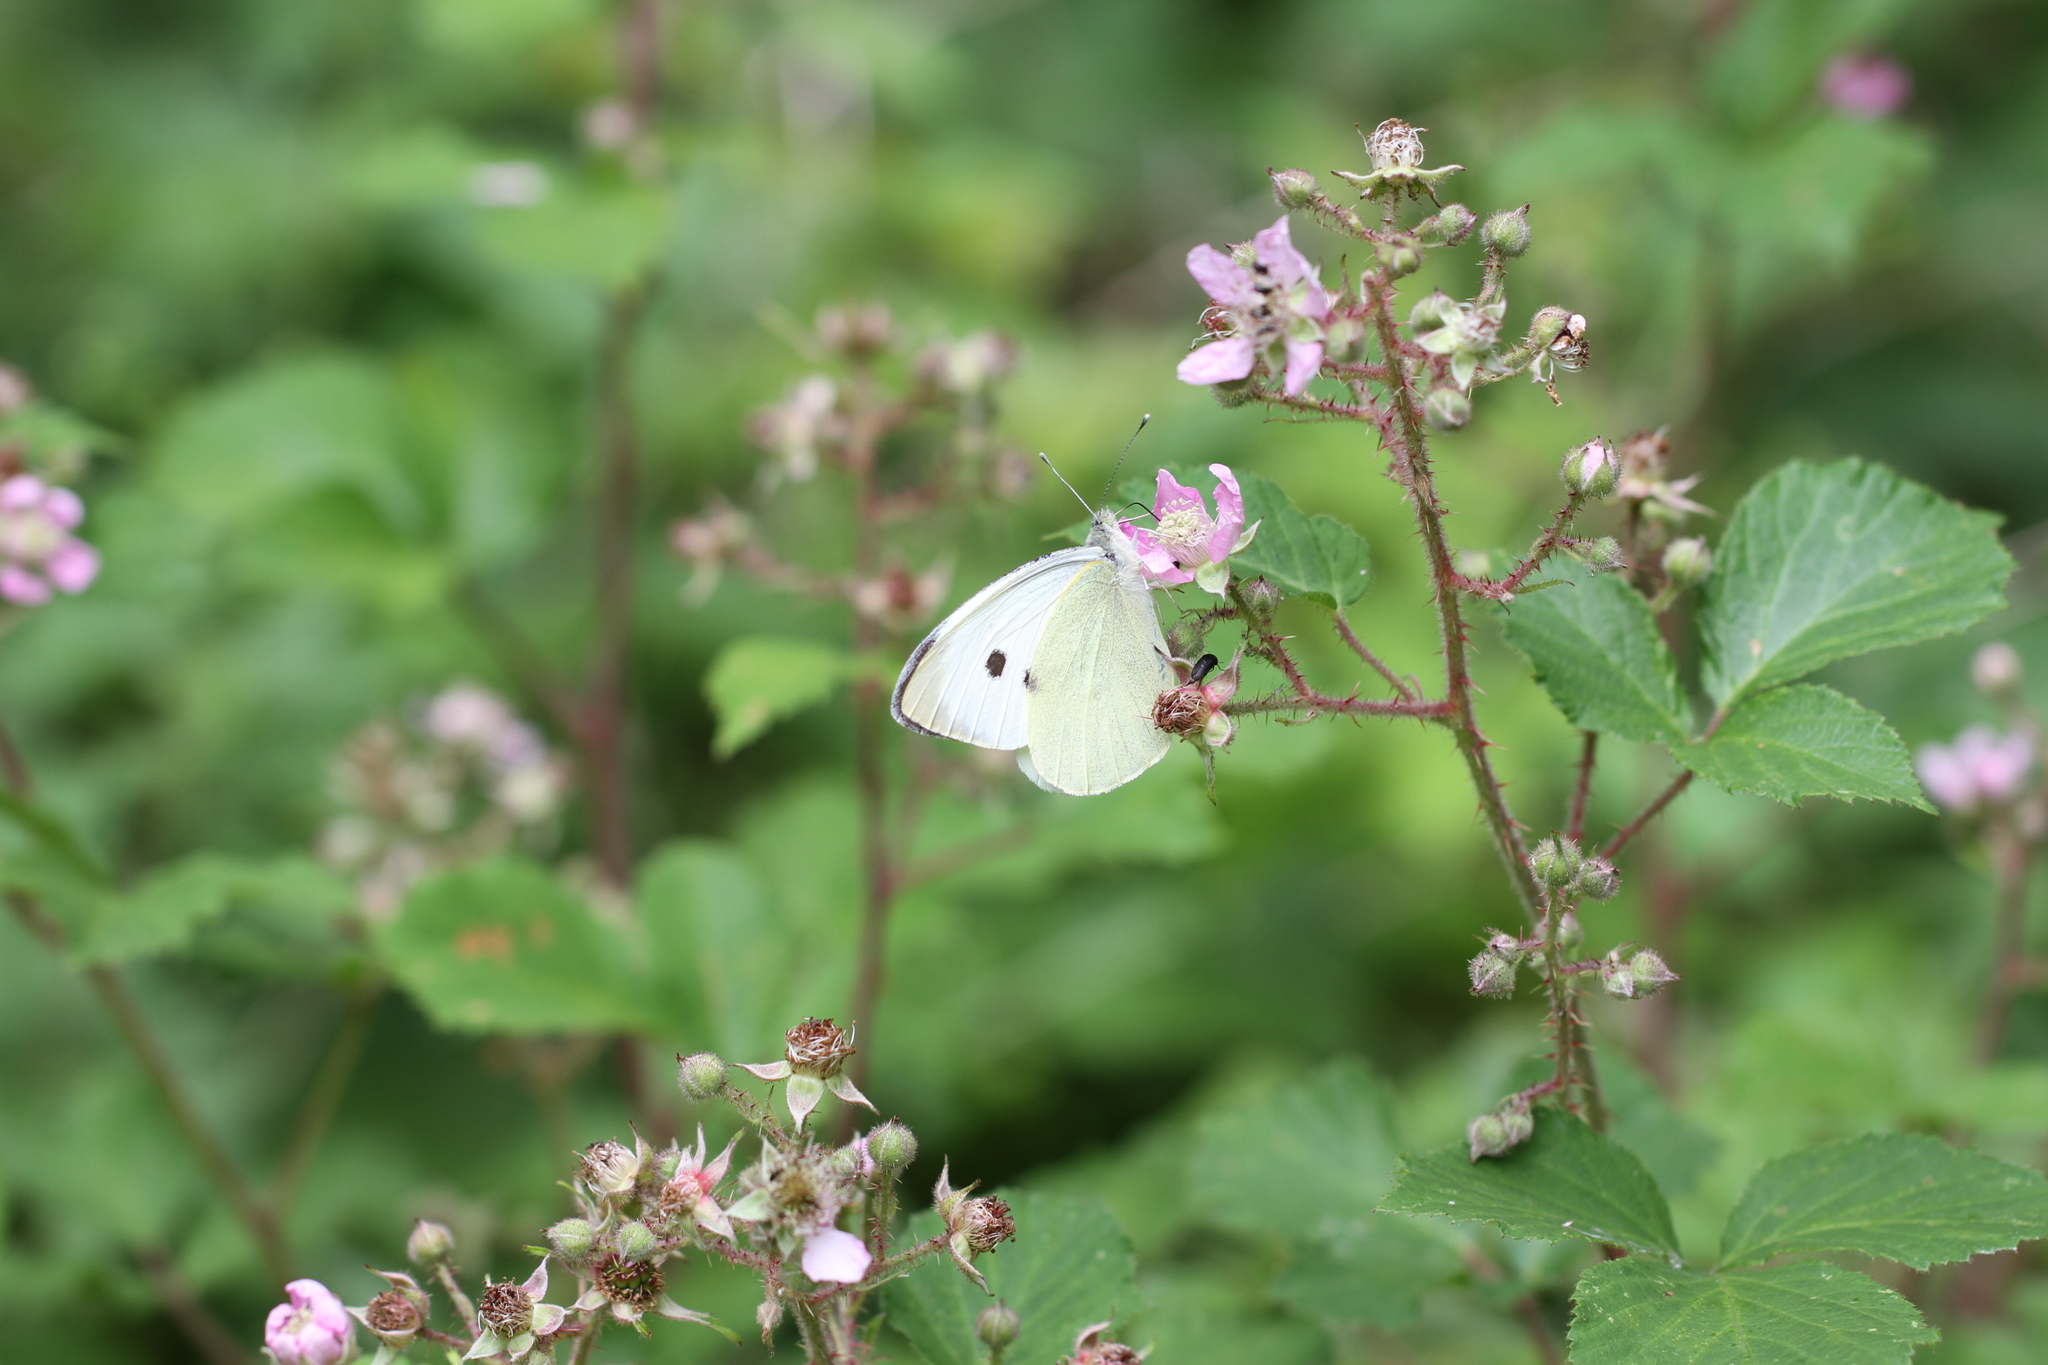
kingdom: Animalia
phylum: Arthropoda
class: Insecta
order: Lepidoptera
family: Pieridae
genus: Pieris
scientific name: Pieris rapae
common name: Small white
